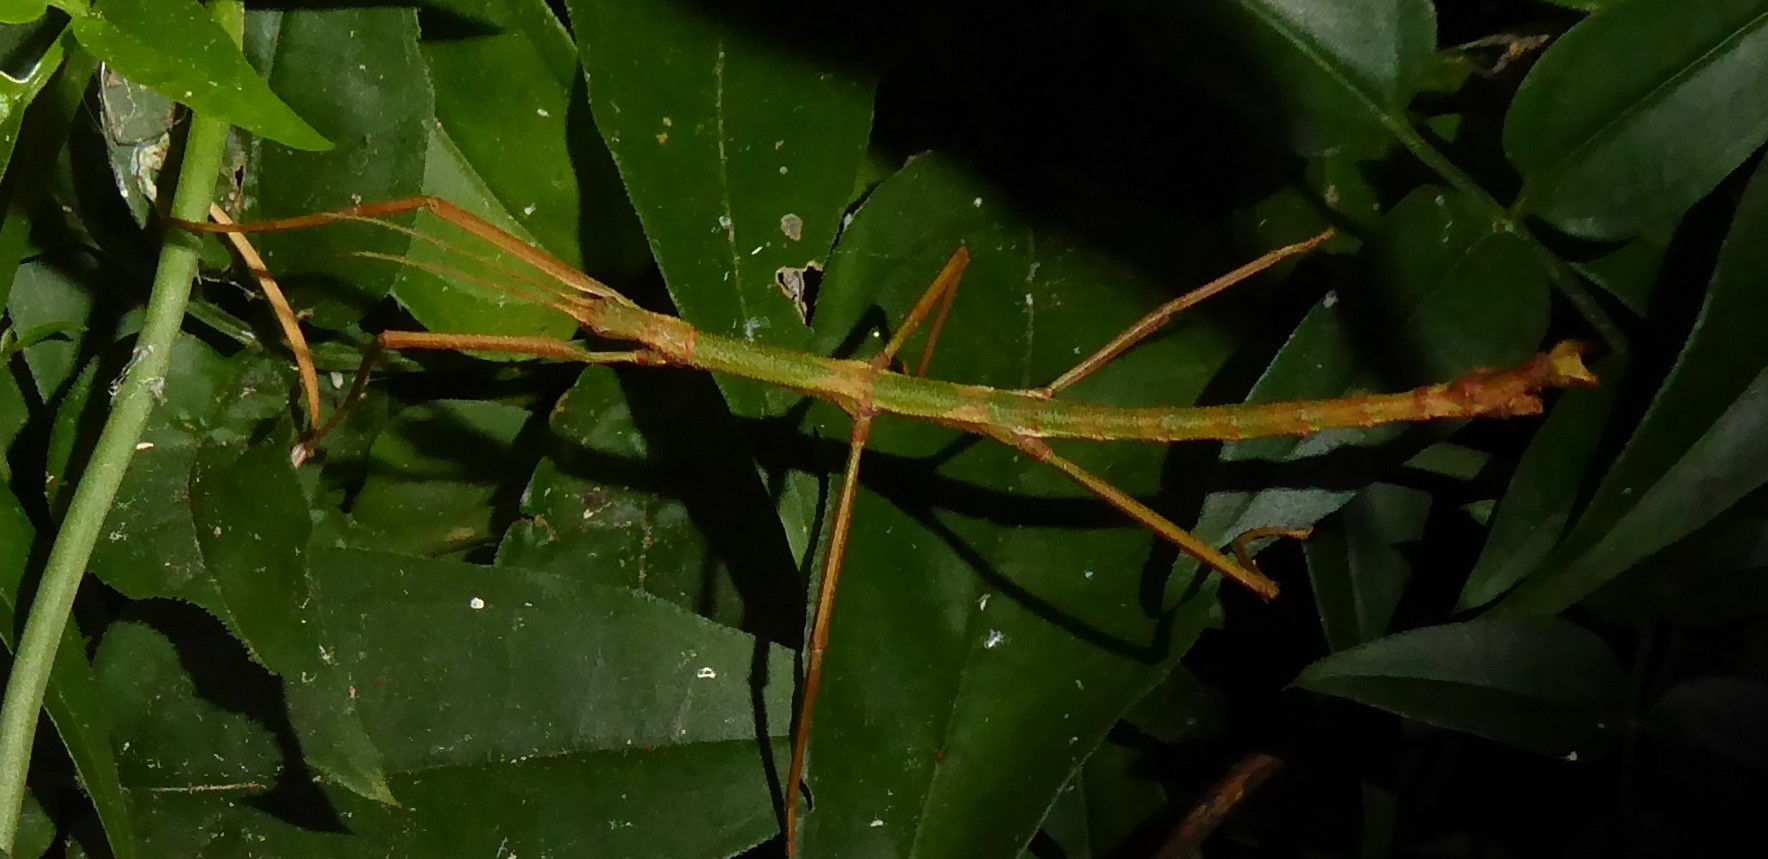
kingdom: Animalia
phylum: Arthropoda
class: Insecta
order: Phasmida
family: Phasmatidae
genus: Niveaphasma
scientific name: Niveaphasma annulatum
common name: Hutton's stick insect
